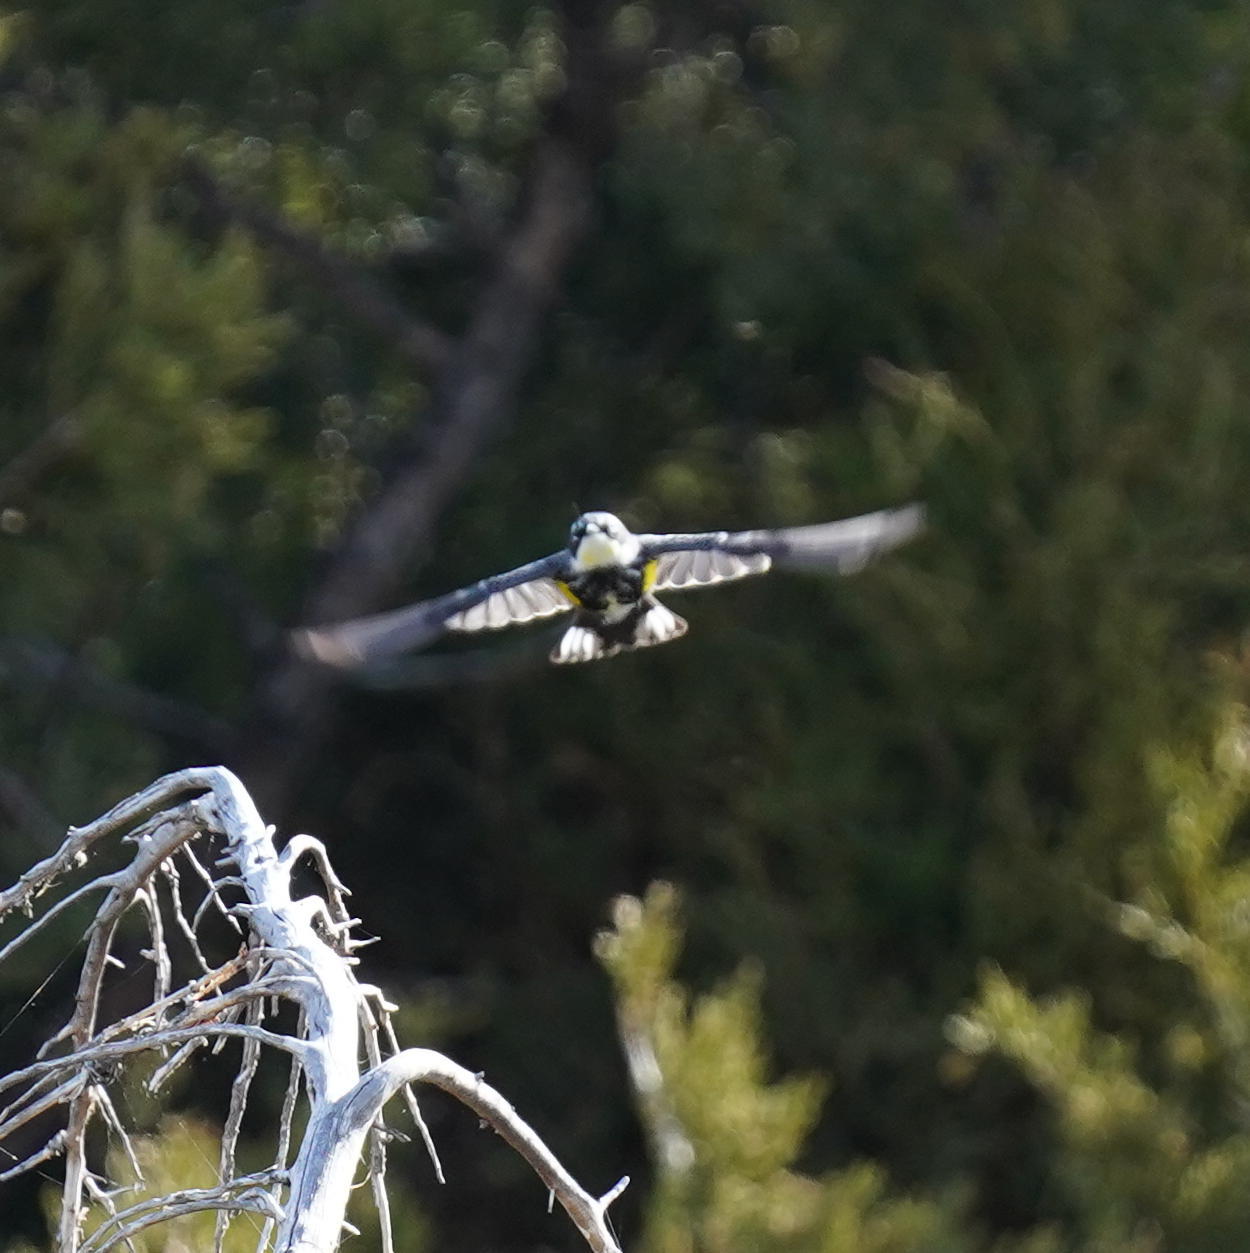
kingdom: Animalia
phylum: Chordata
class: Aves
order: Passeriformes
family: Parulidae
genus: Setophaga
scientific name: Setophaga coronata
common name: Myrtle warbler
